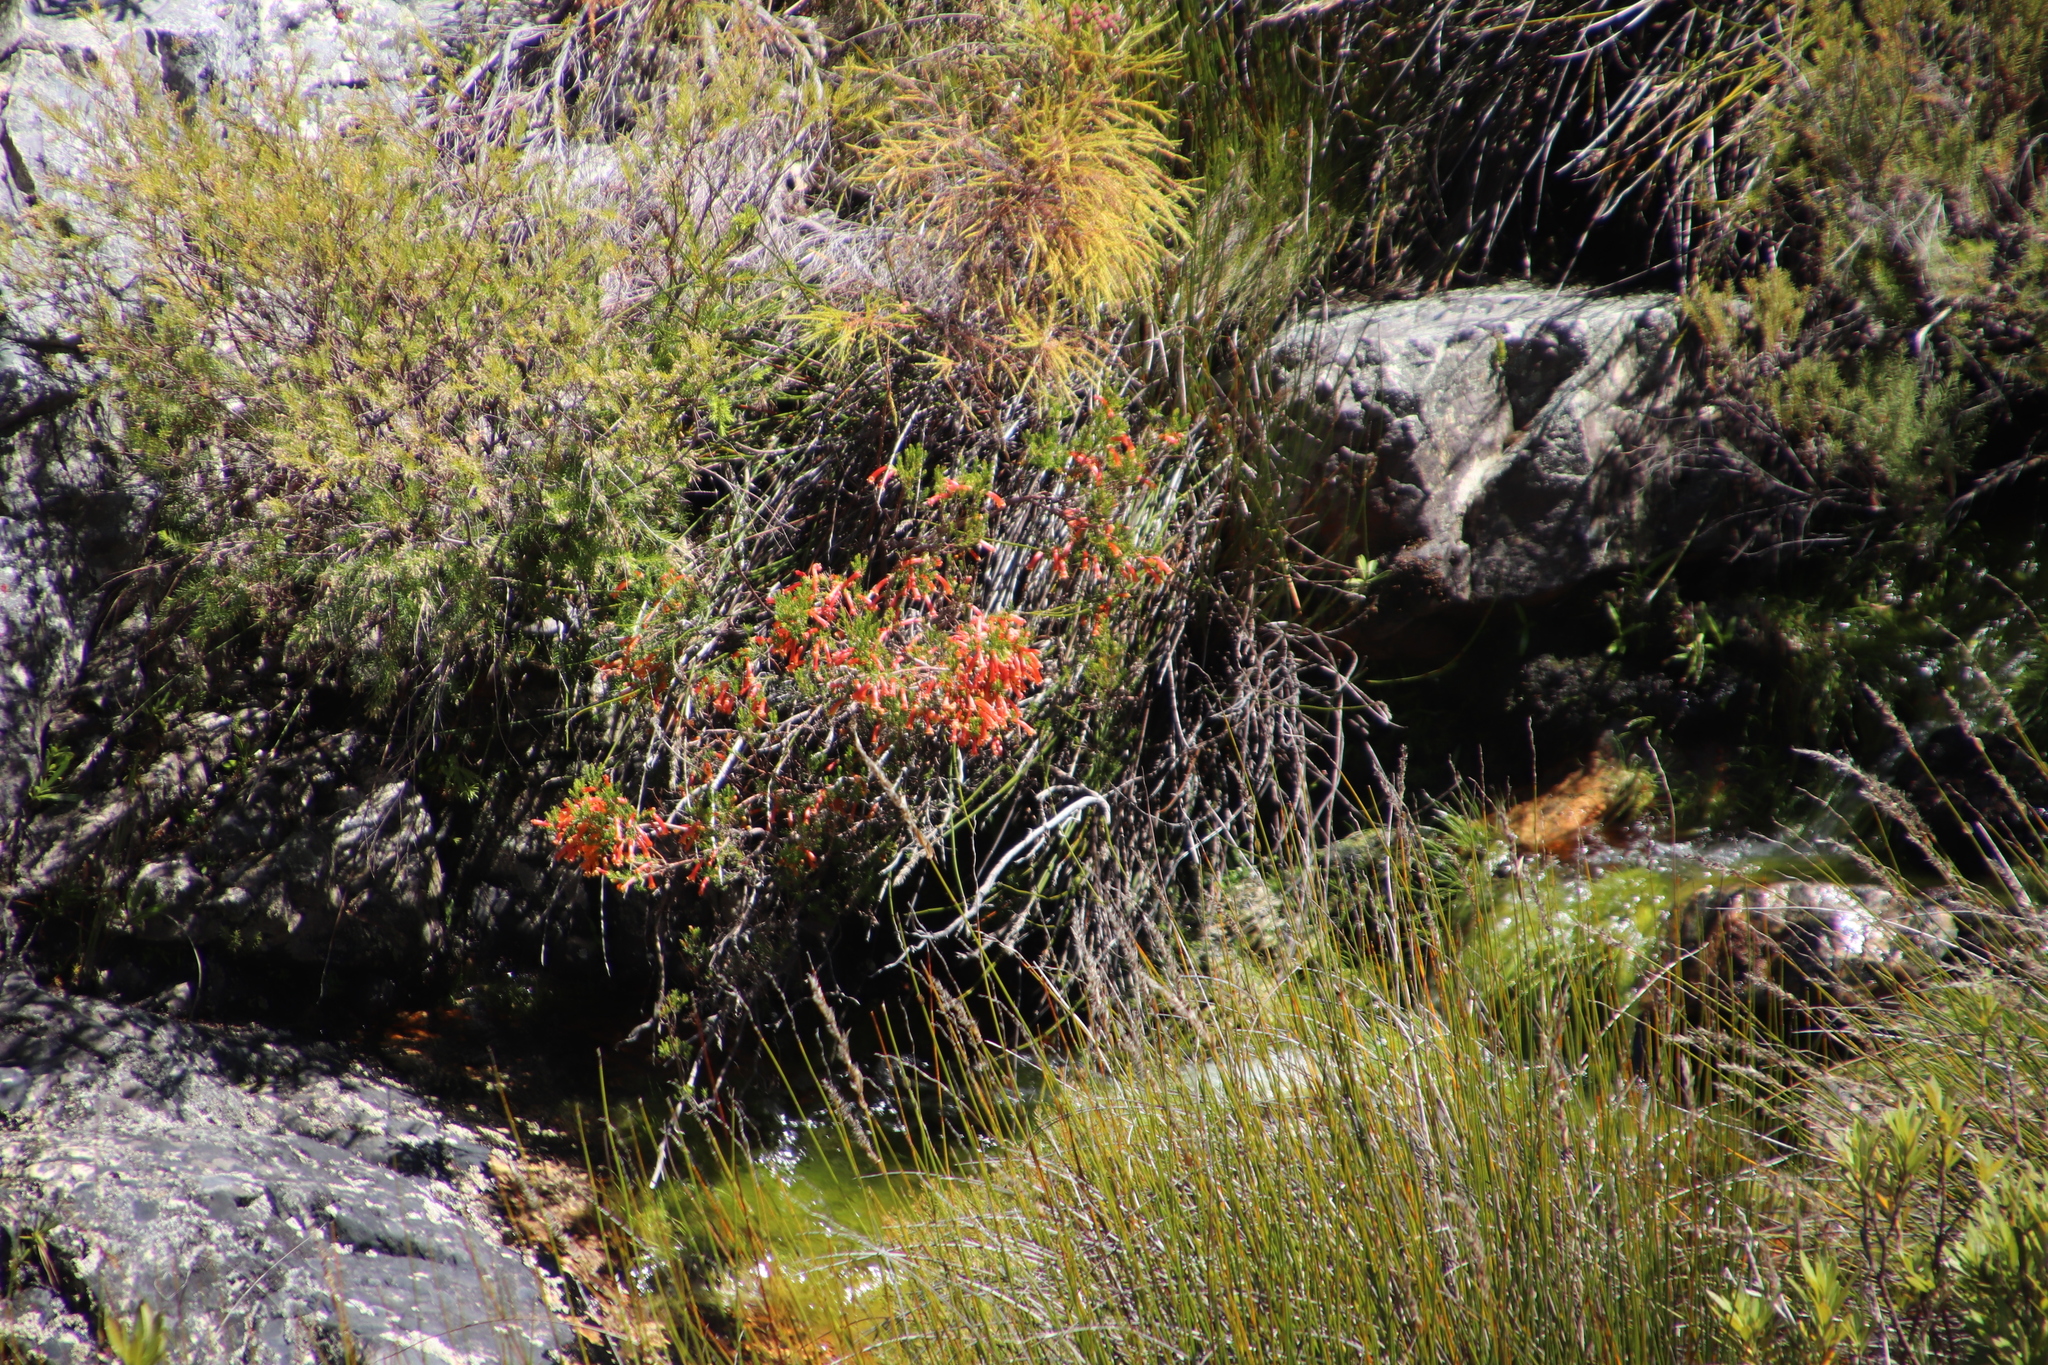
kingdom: Plantae
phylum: Tracheophyta
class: Magnoliopsida
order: Ericales
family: Ericaceae
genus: Erica
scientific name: Erica curviflora
